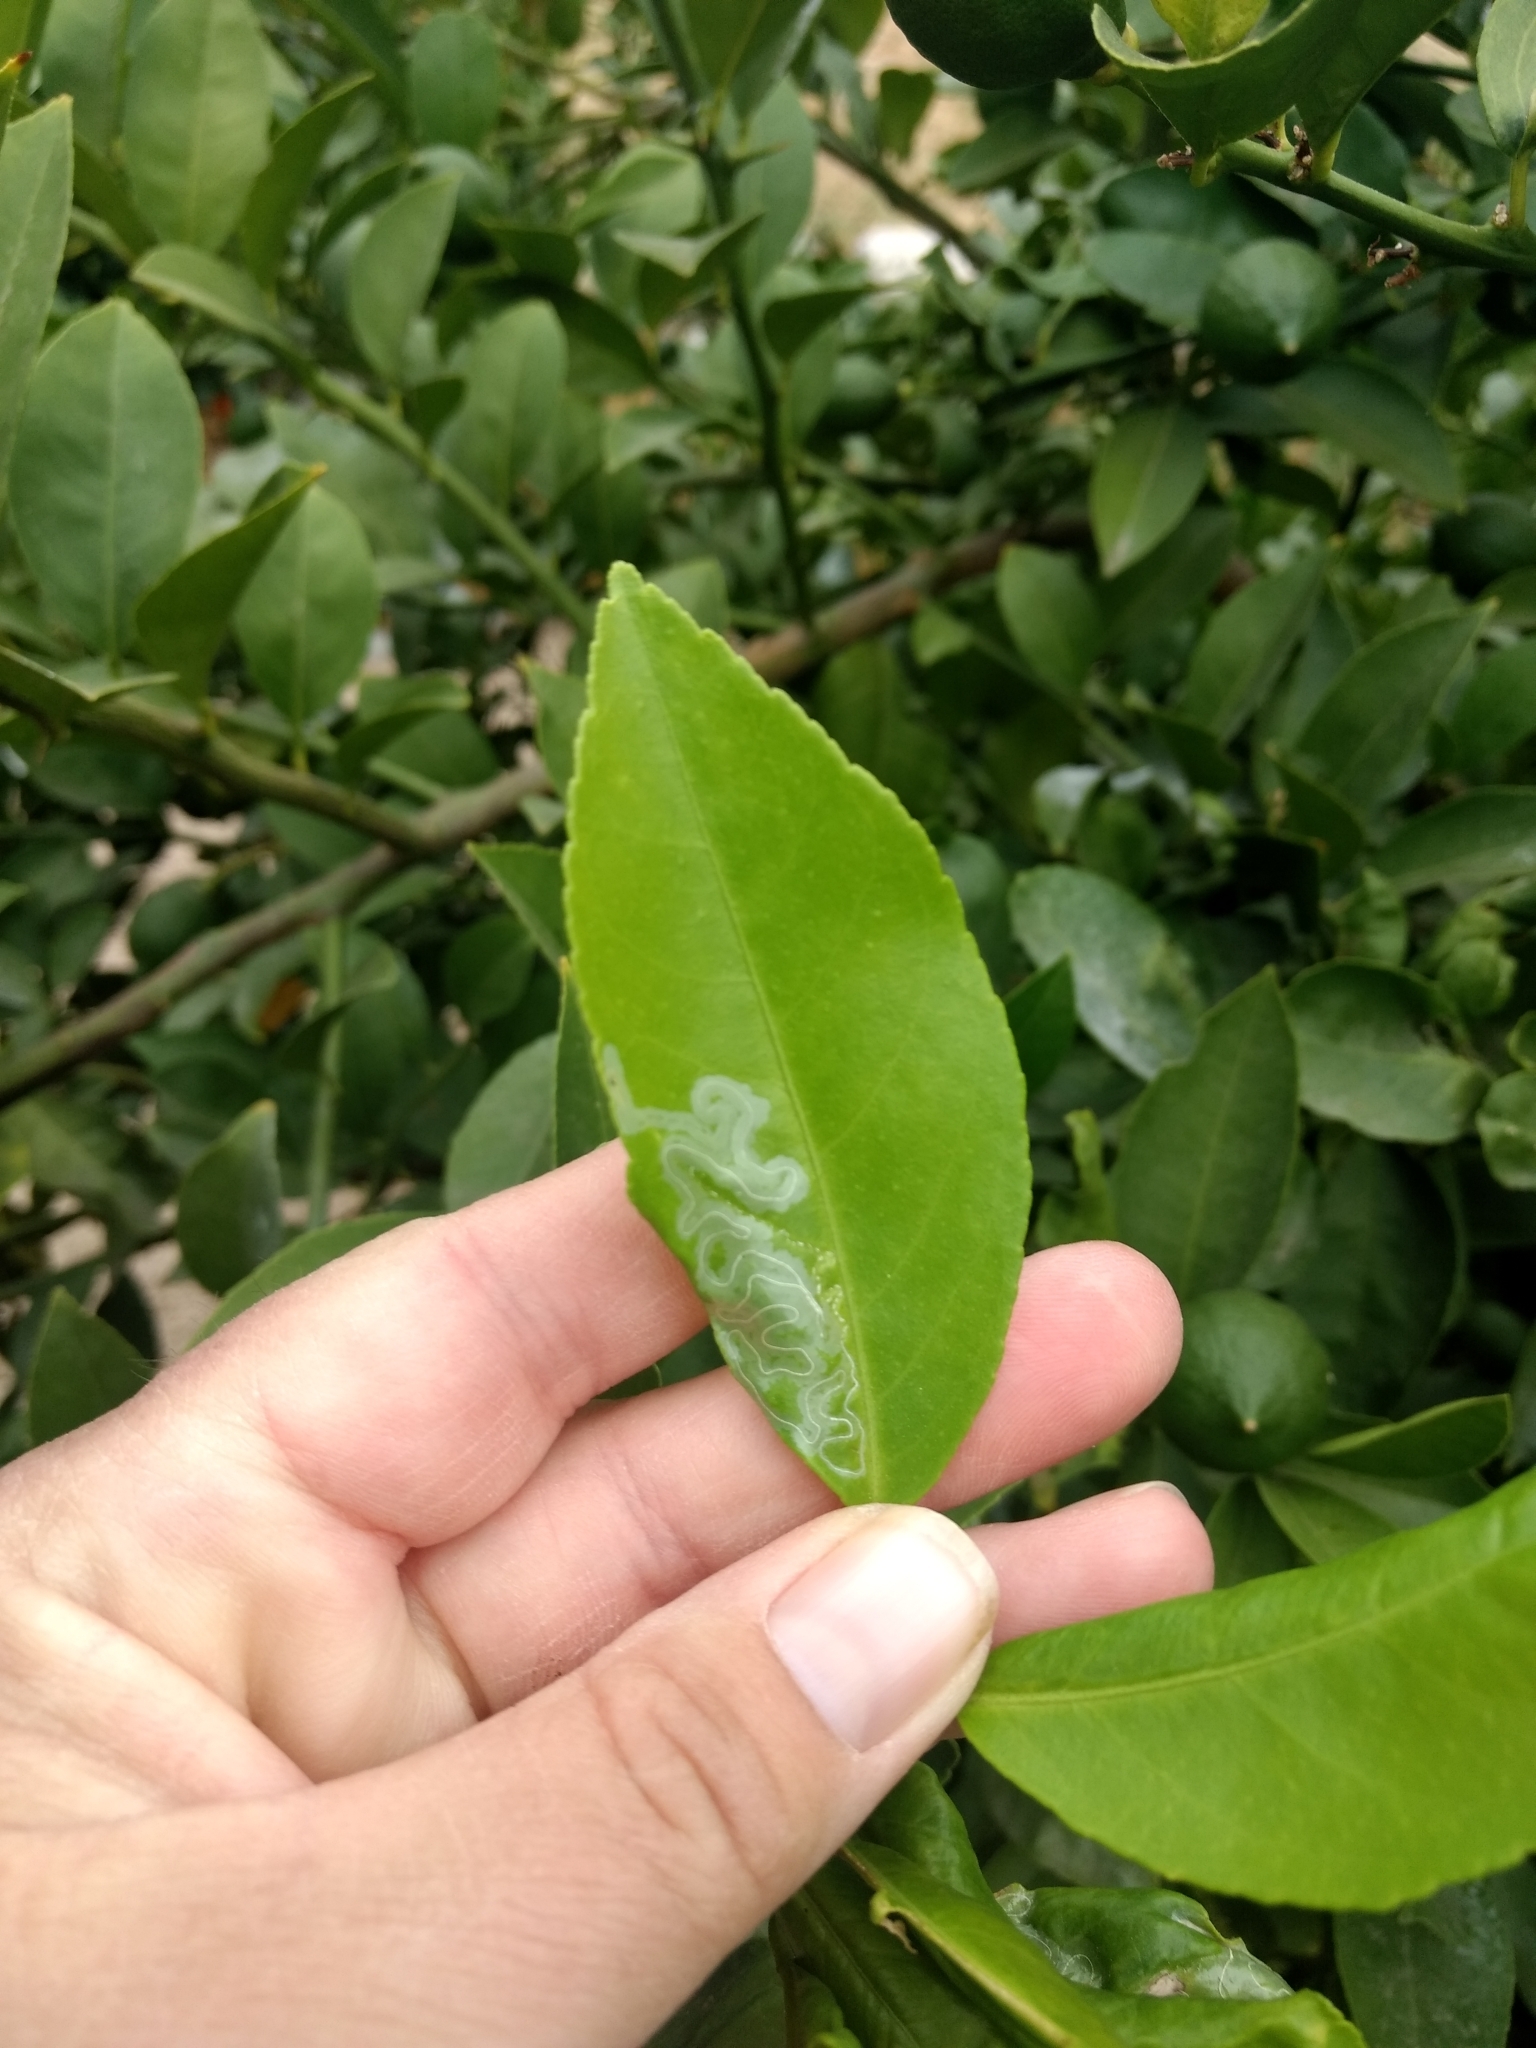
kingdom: Animalia
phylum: Arthropoda
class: Insecta
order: Lepidoptera
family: Gracillariidae
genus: Phyllocnistis
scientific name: Phyllocnistis citrella
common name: Citrus leafminer
